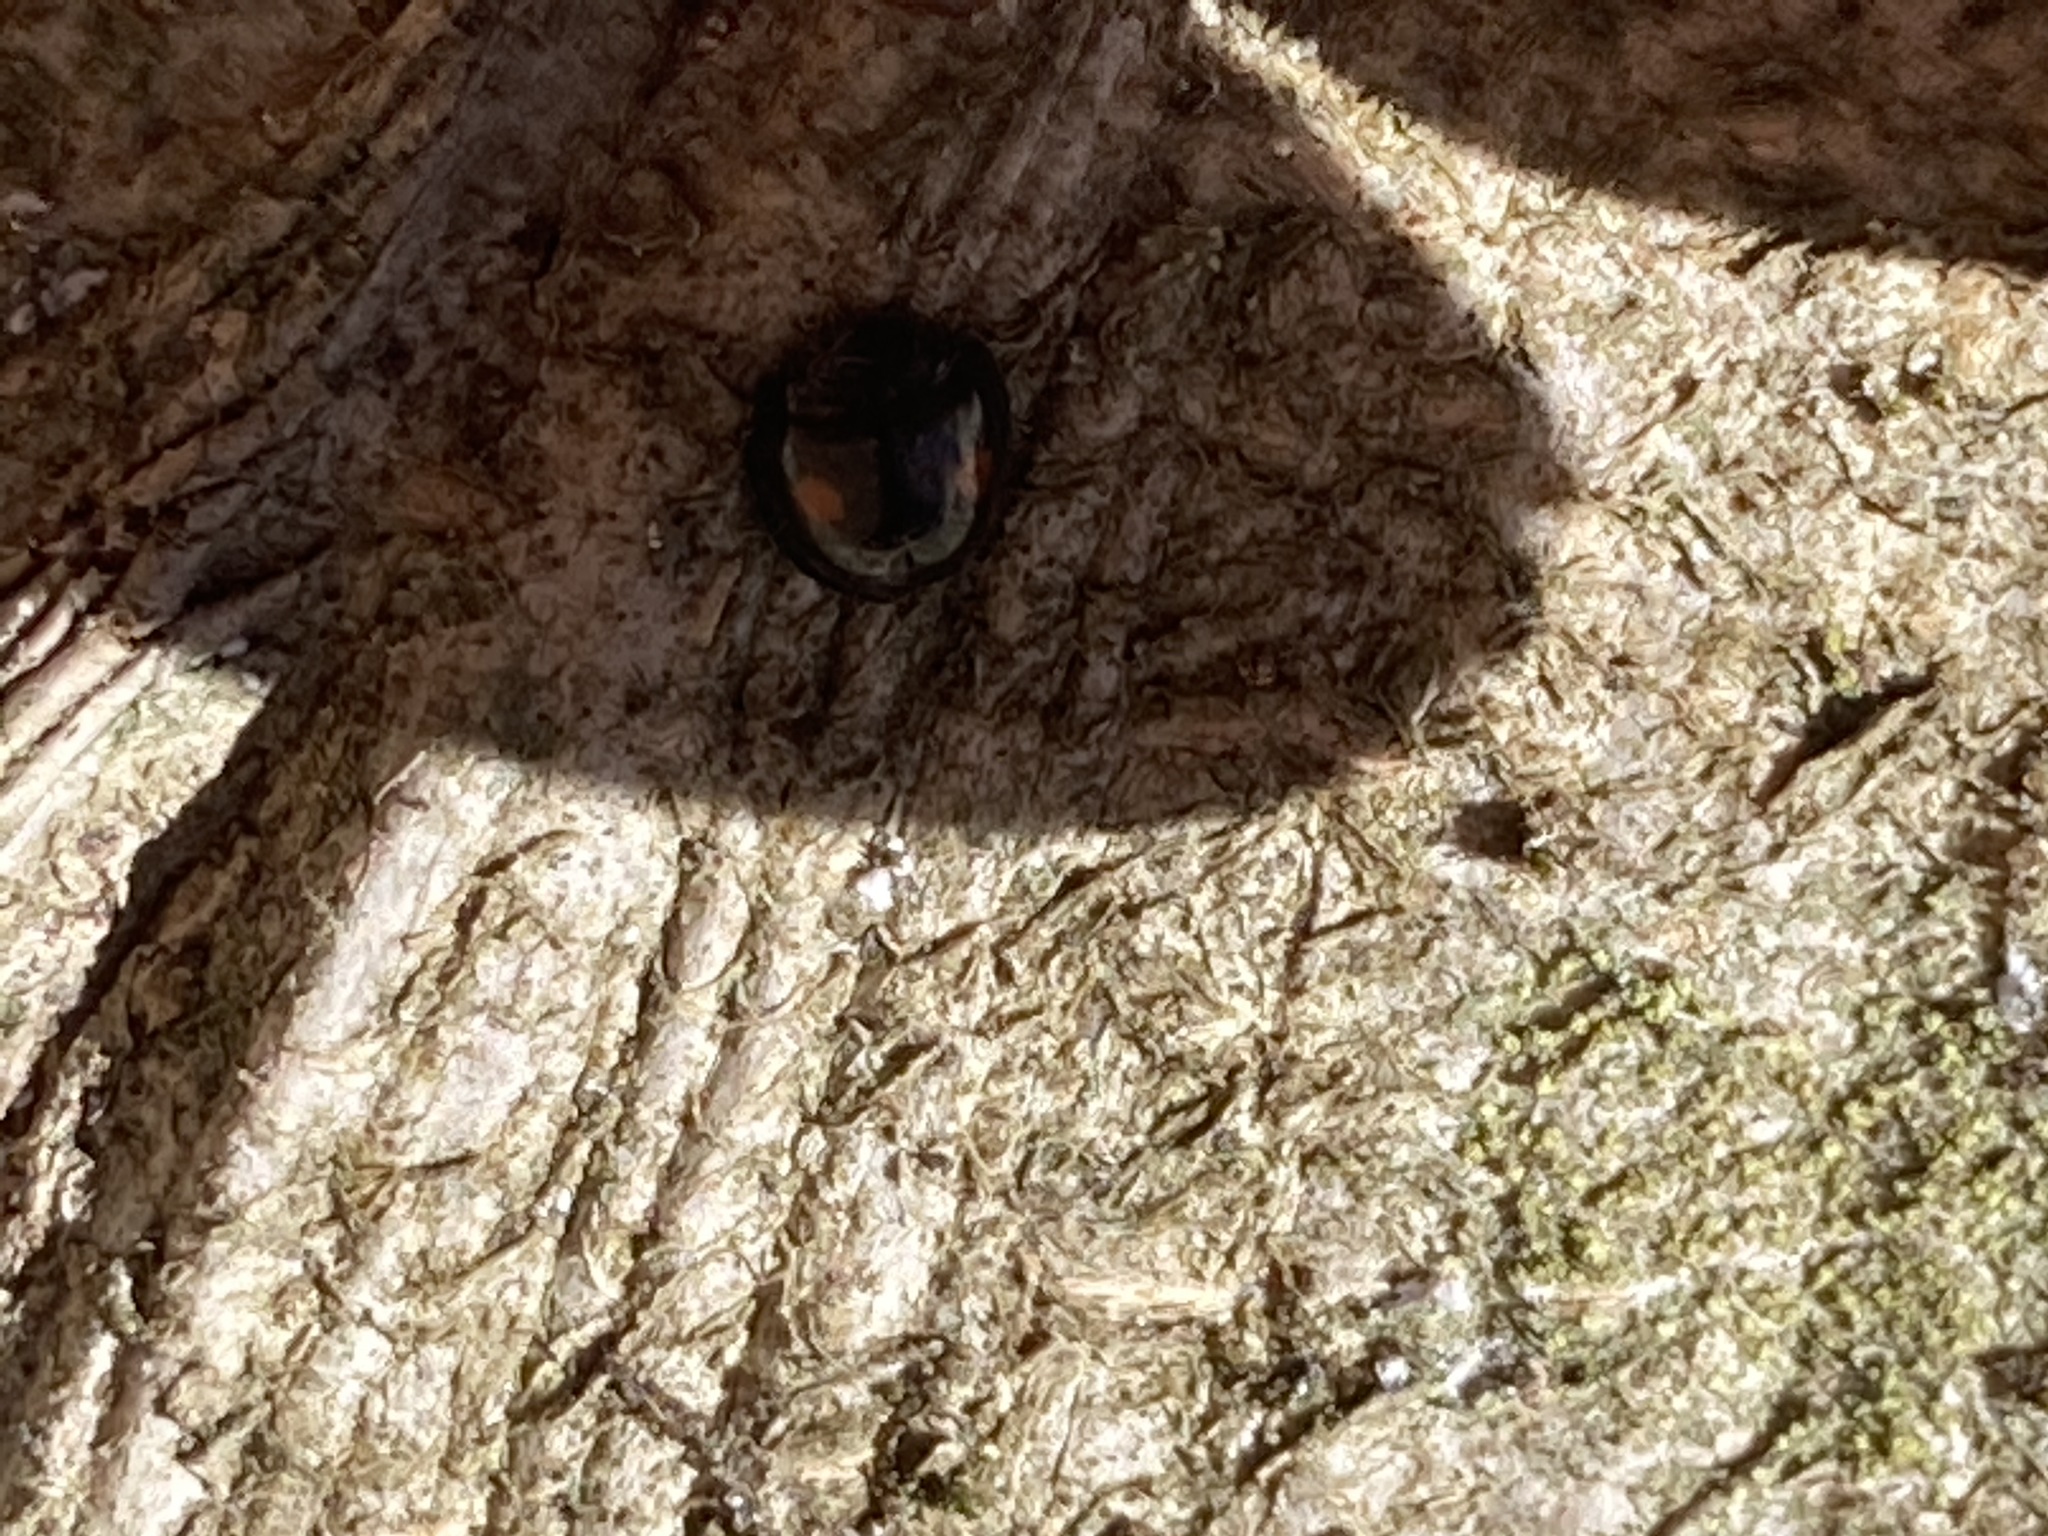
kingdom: Animalia
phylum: Arthropoda
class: Insecta
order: Coleoptera
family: Coccinellidae
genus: Chilocorus
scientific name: Chilocorus stigma
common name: Twicestabbed lady beetle
